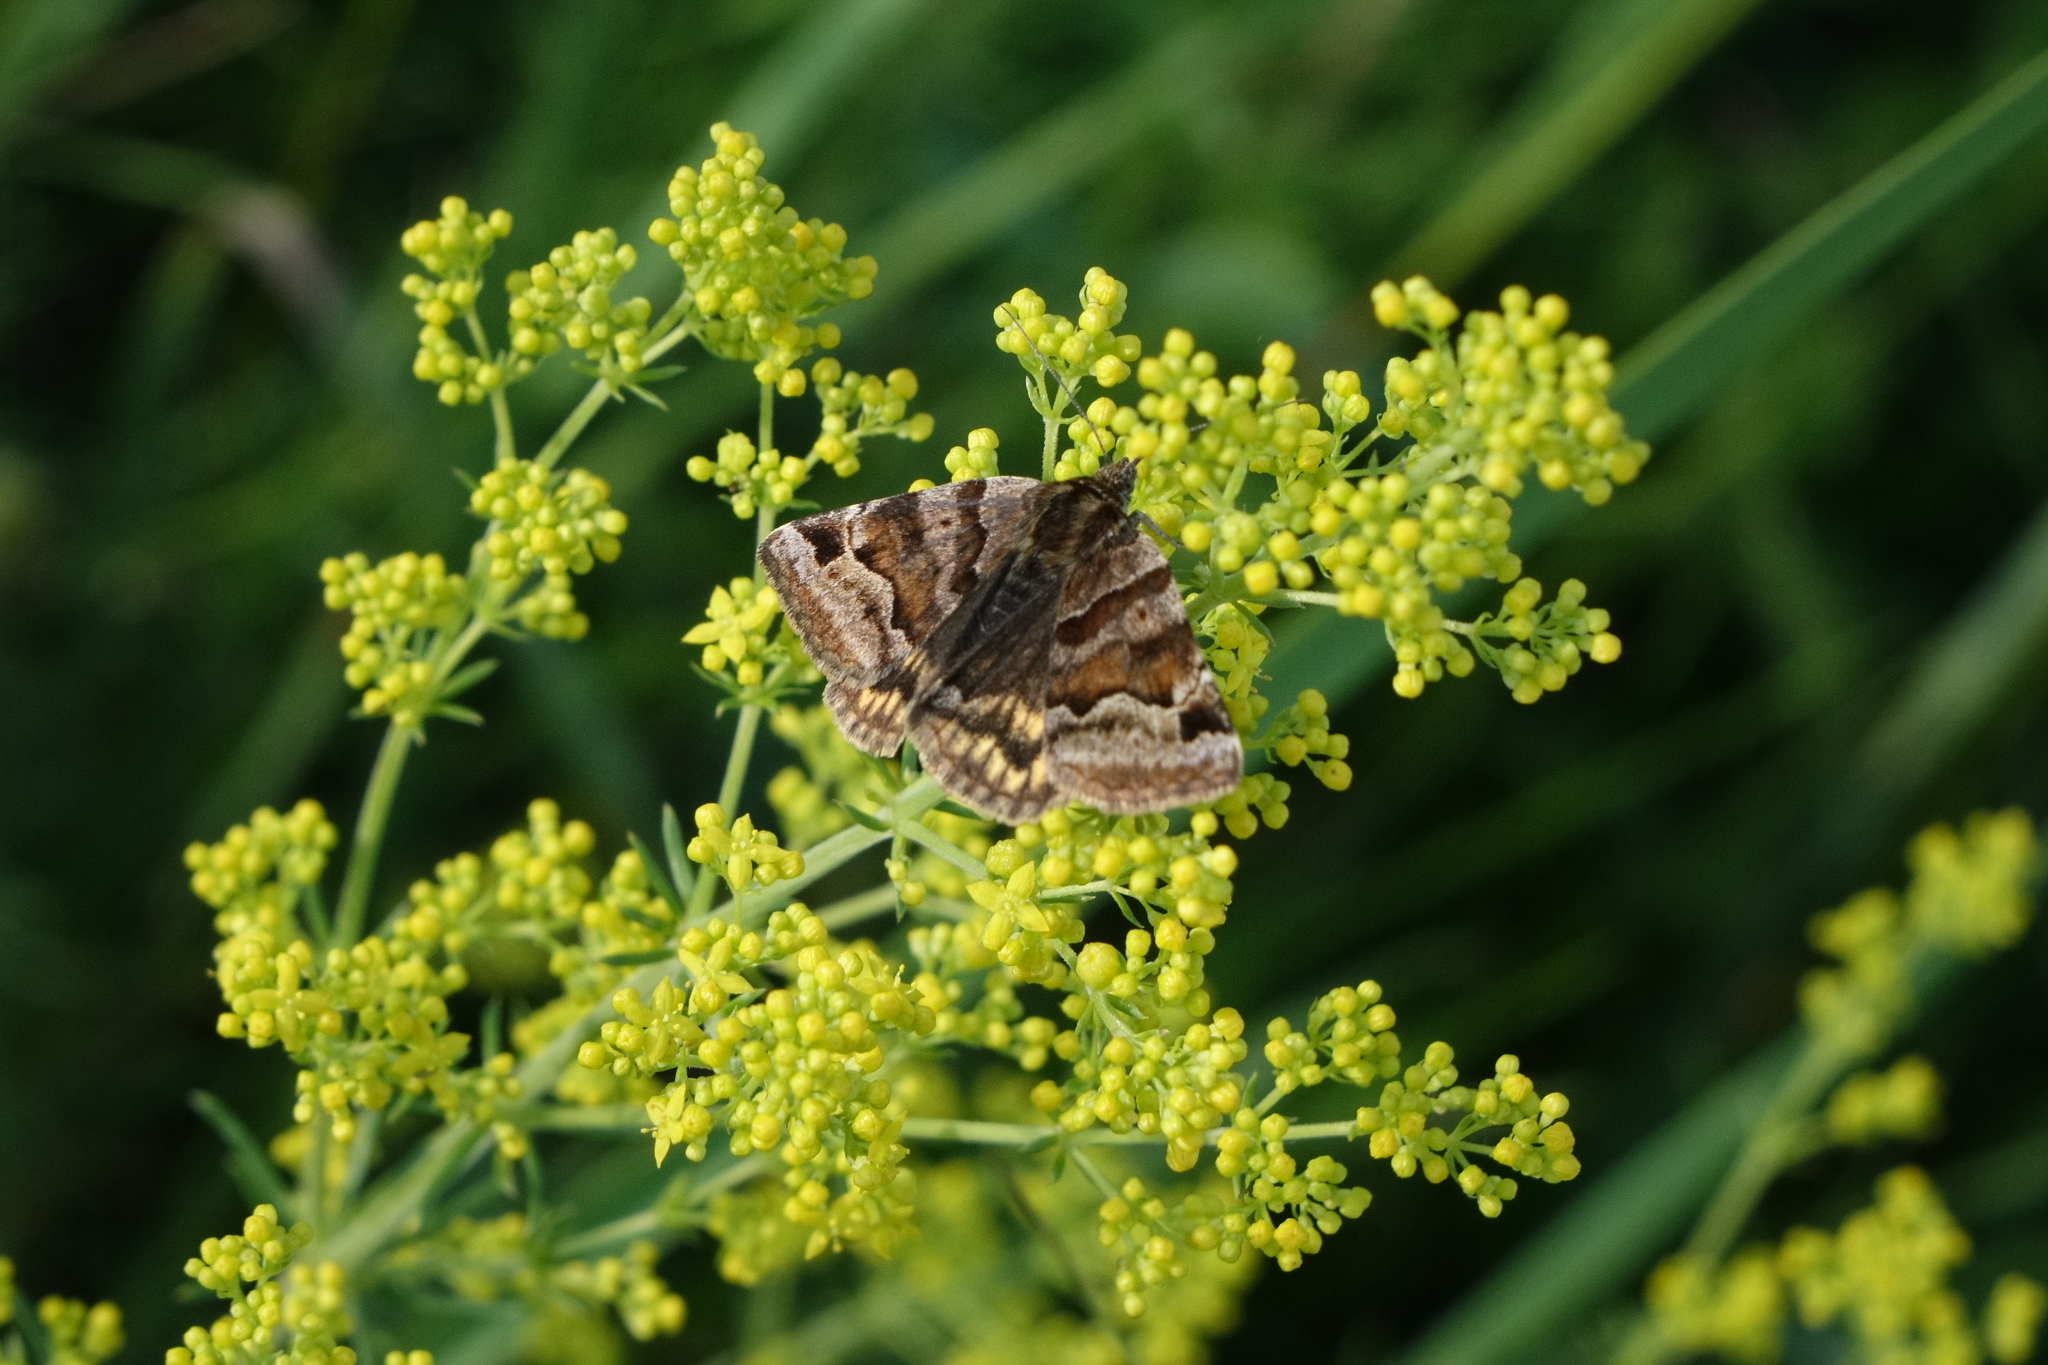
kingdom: Animalia
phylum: Arthropoda
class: Insecta
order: Lepidoptera
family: Erebidae
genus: Euclidia
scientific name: Euclidia glyphica
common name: Burnet companion
